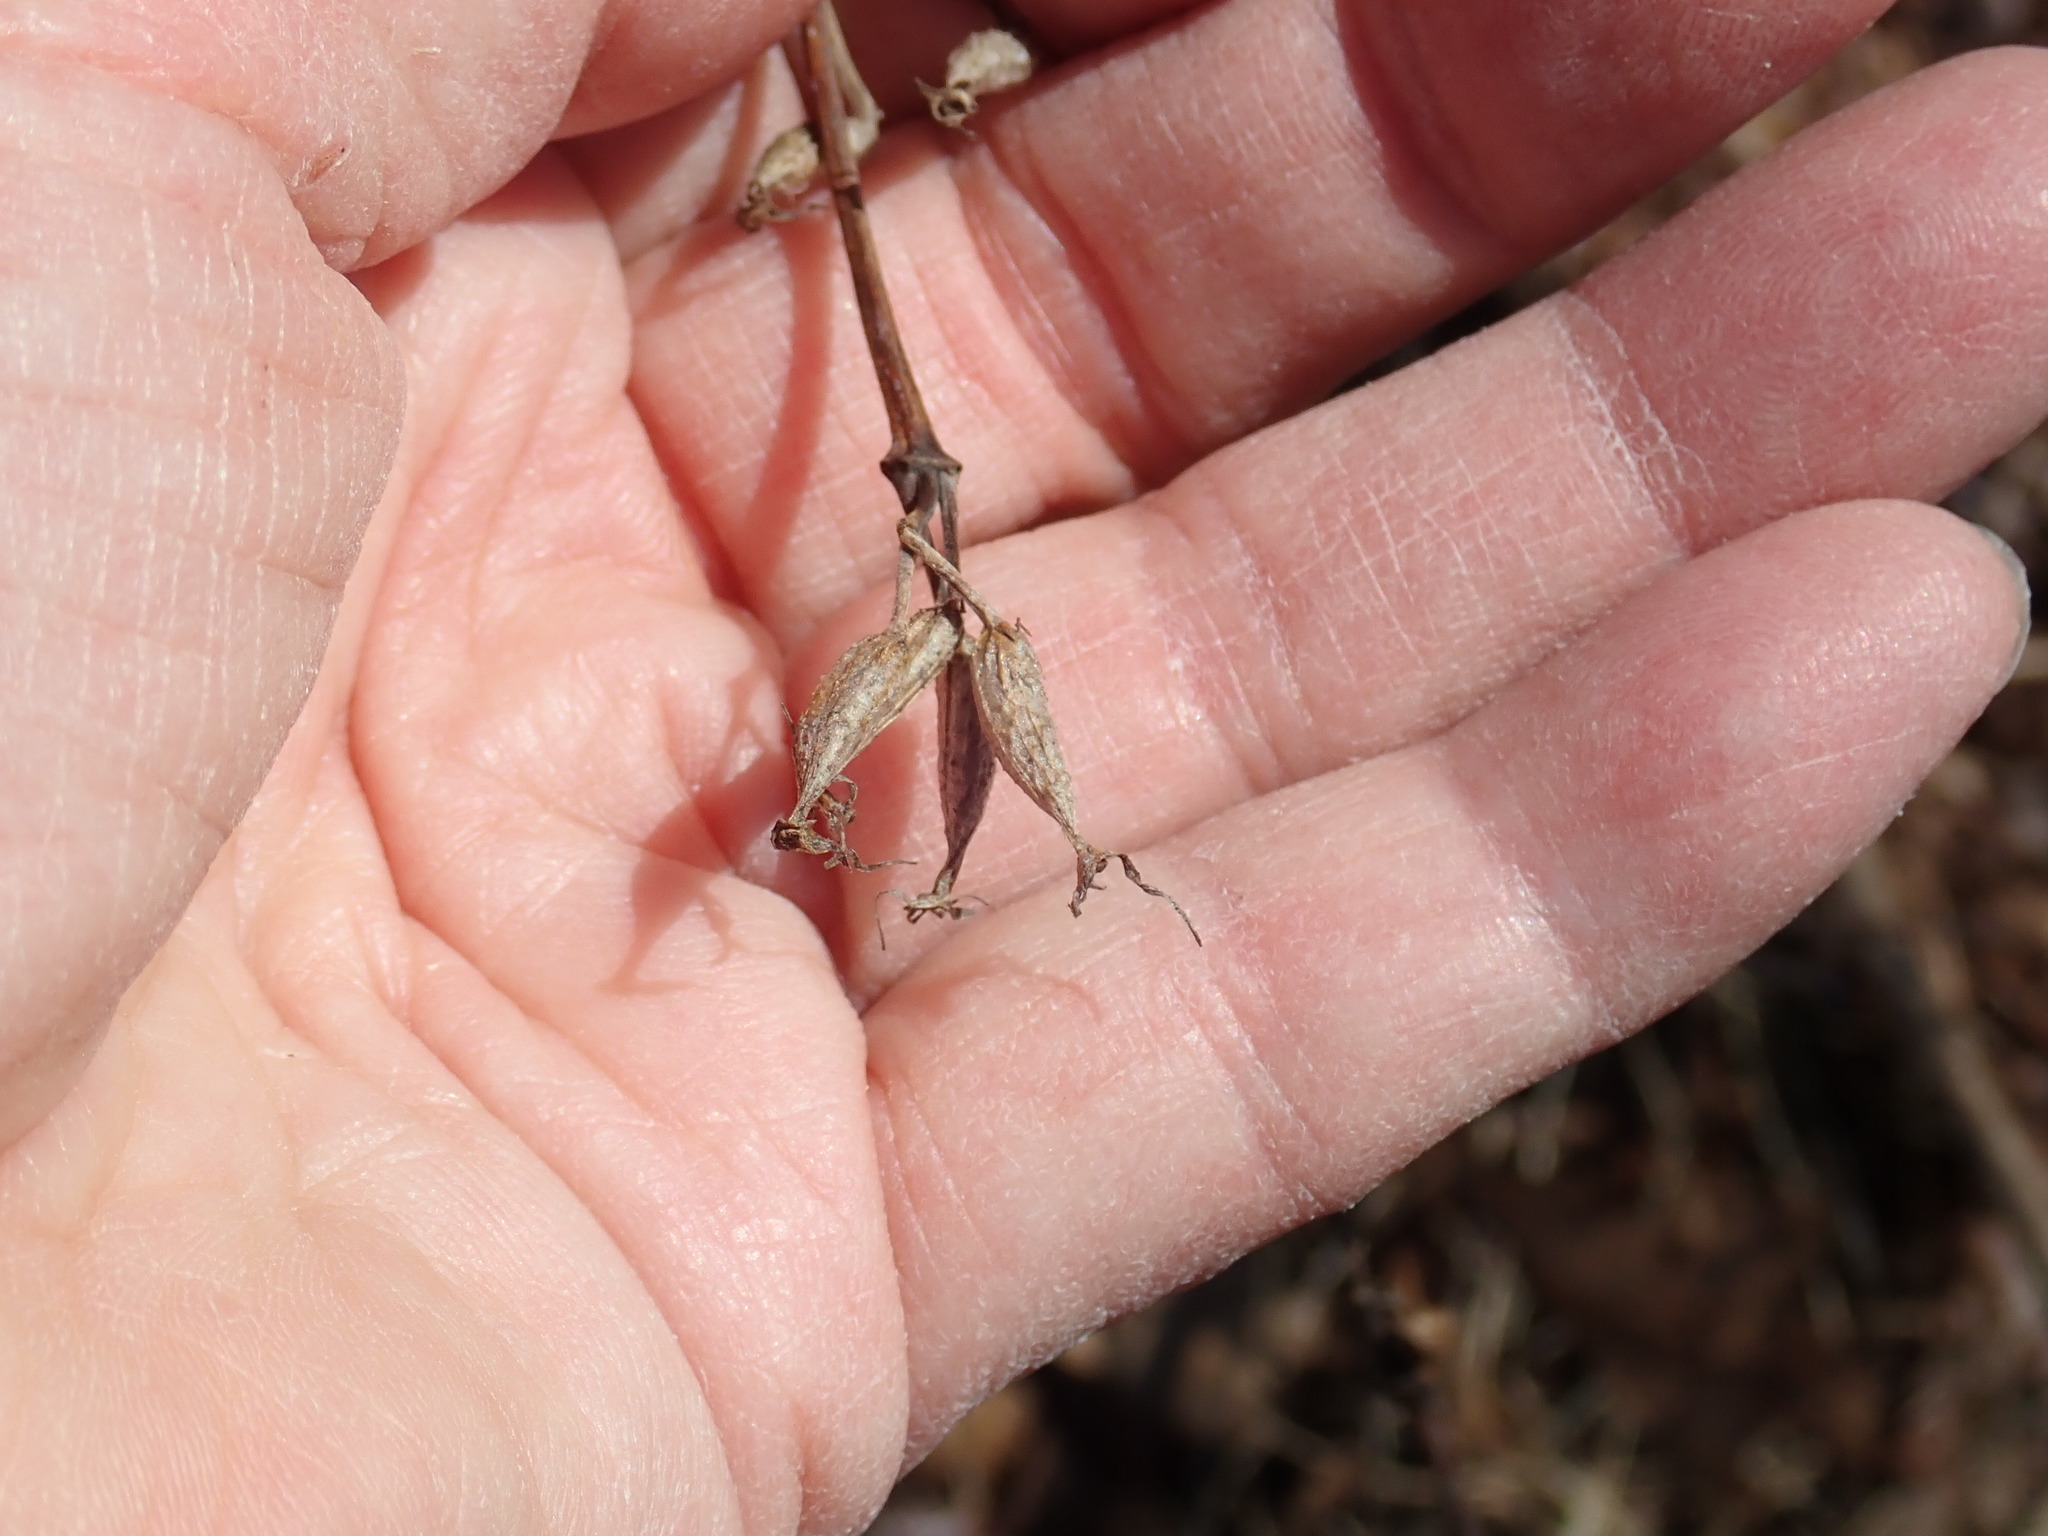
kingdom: Plantae
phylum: Tracheophyta
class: Magnoliopsida
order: Dipsacales
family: Caprifoliaceae
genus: Diervilla
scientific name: Diervilla lonicera
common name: Bush-honeysuckle
